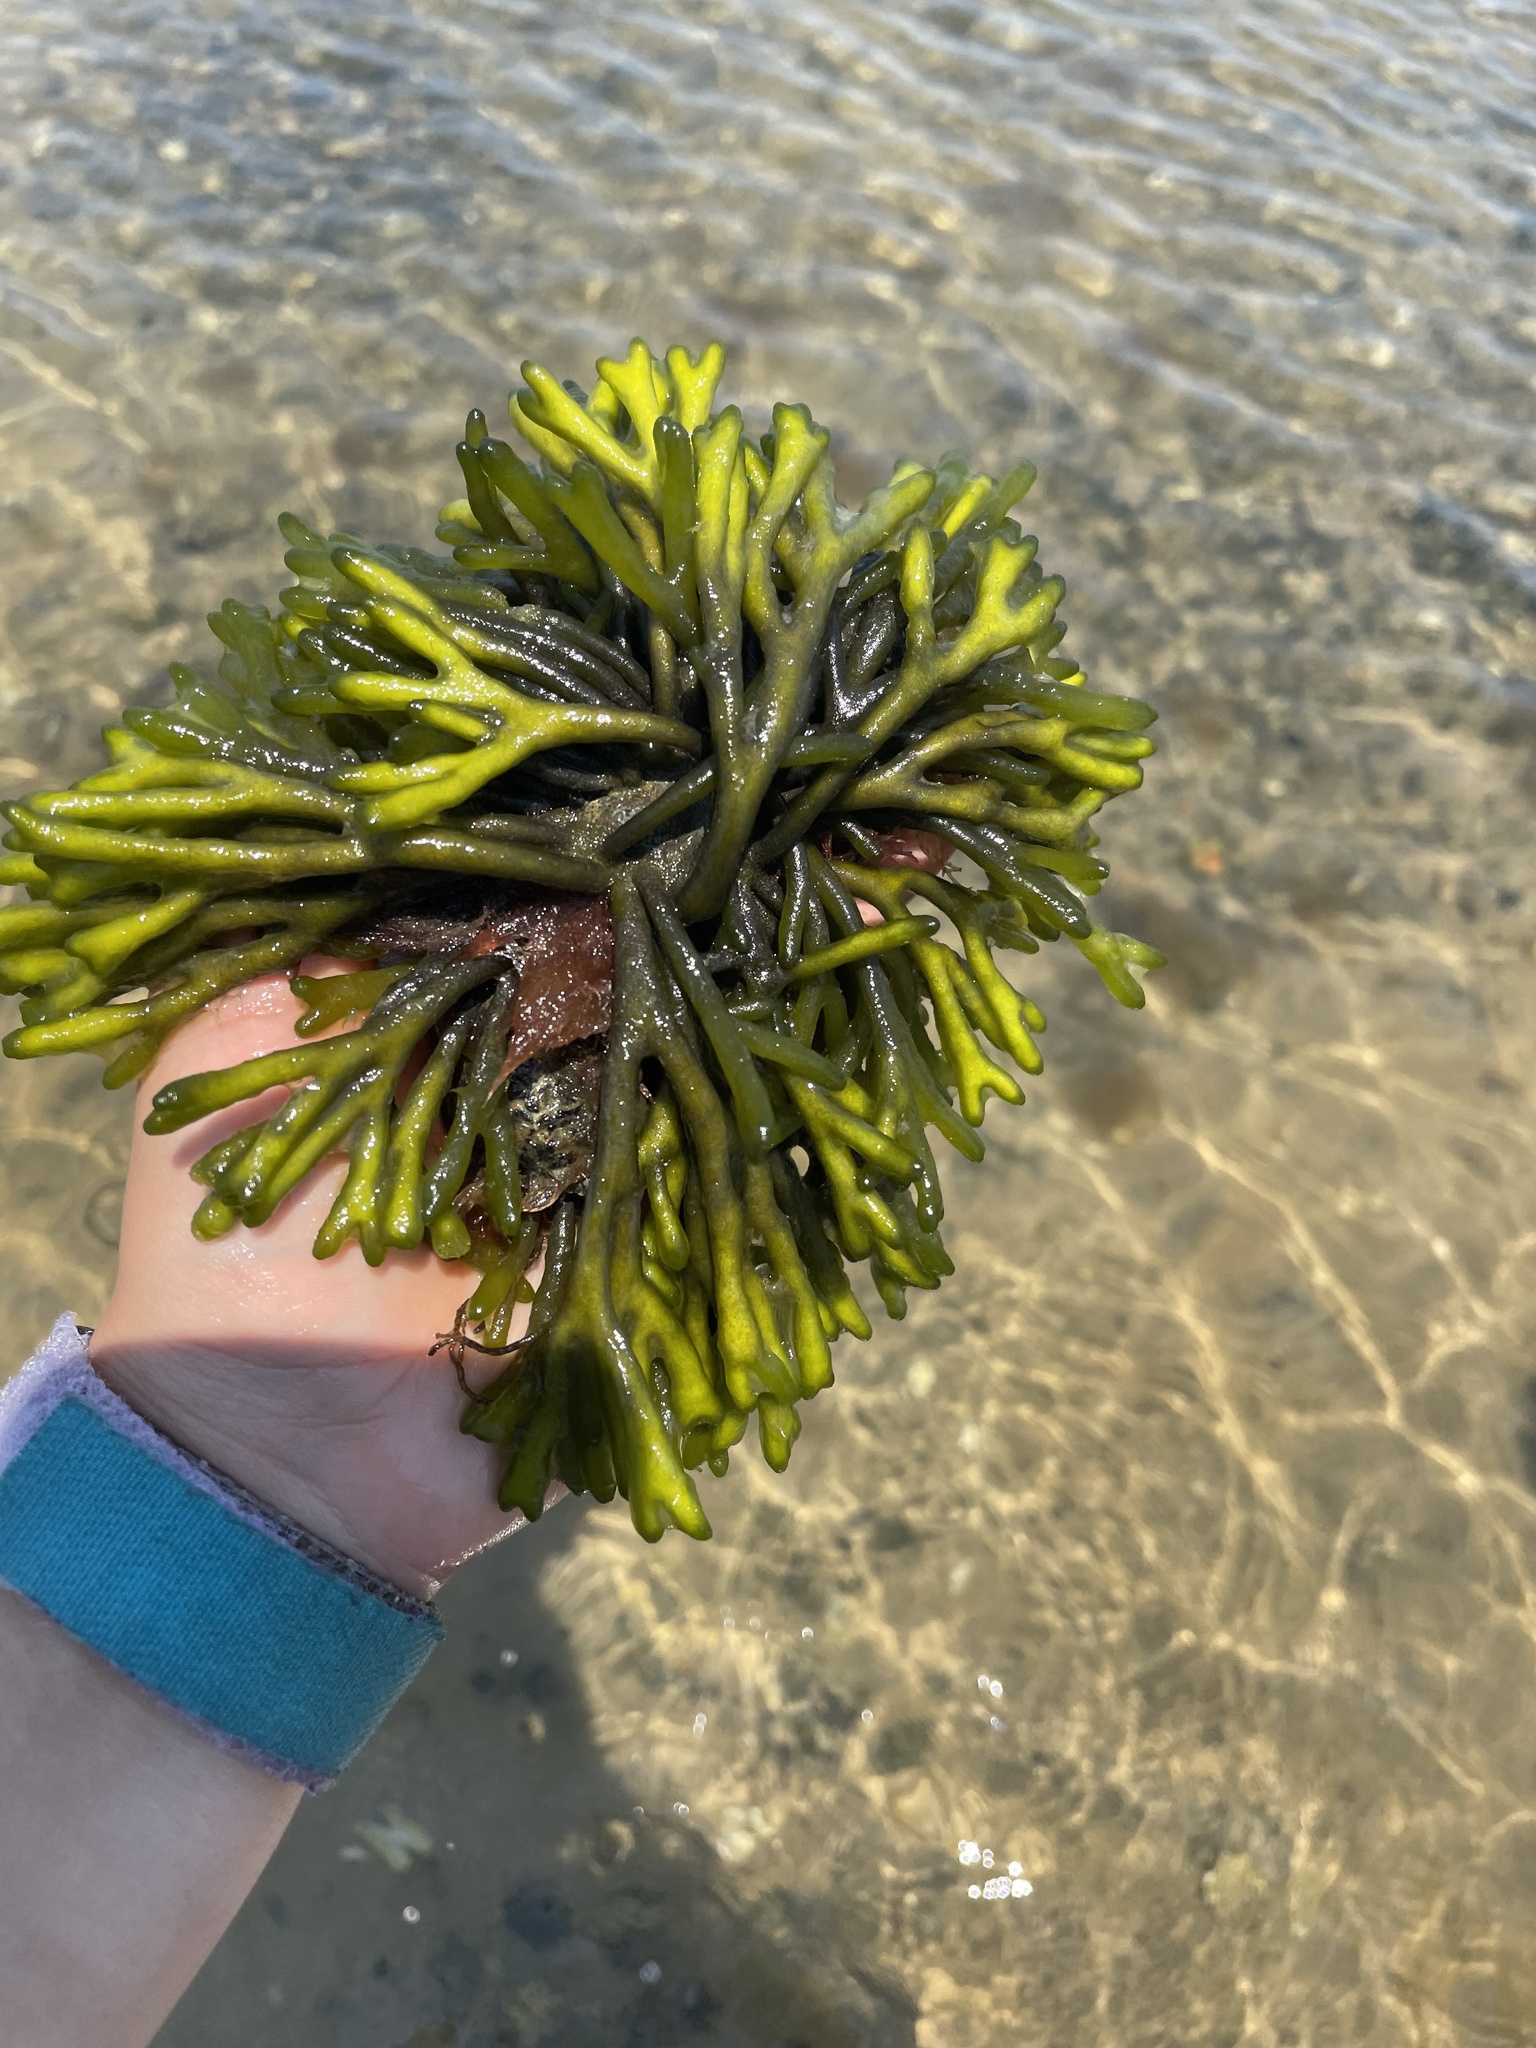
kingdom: Plantae
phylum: Chlorophyta
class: Ulvophyceae
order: Bryopsidales
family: Codiaceae
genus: Codium
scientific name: Codium fragile
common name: Dead man's fingers
